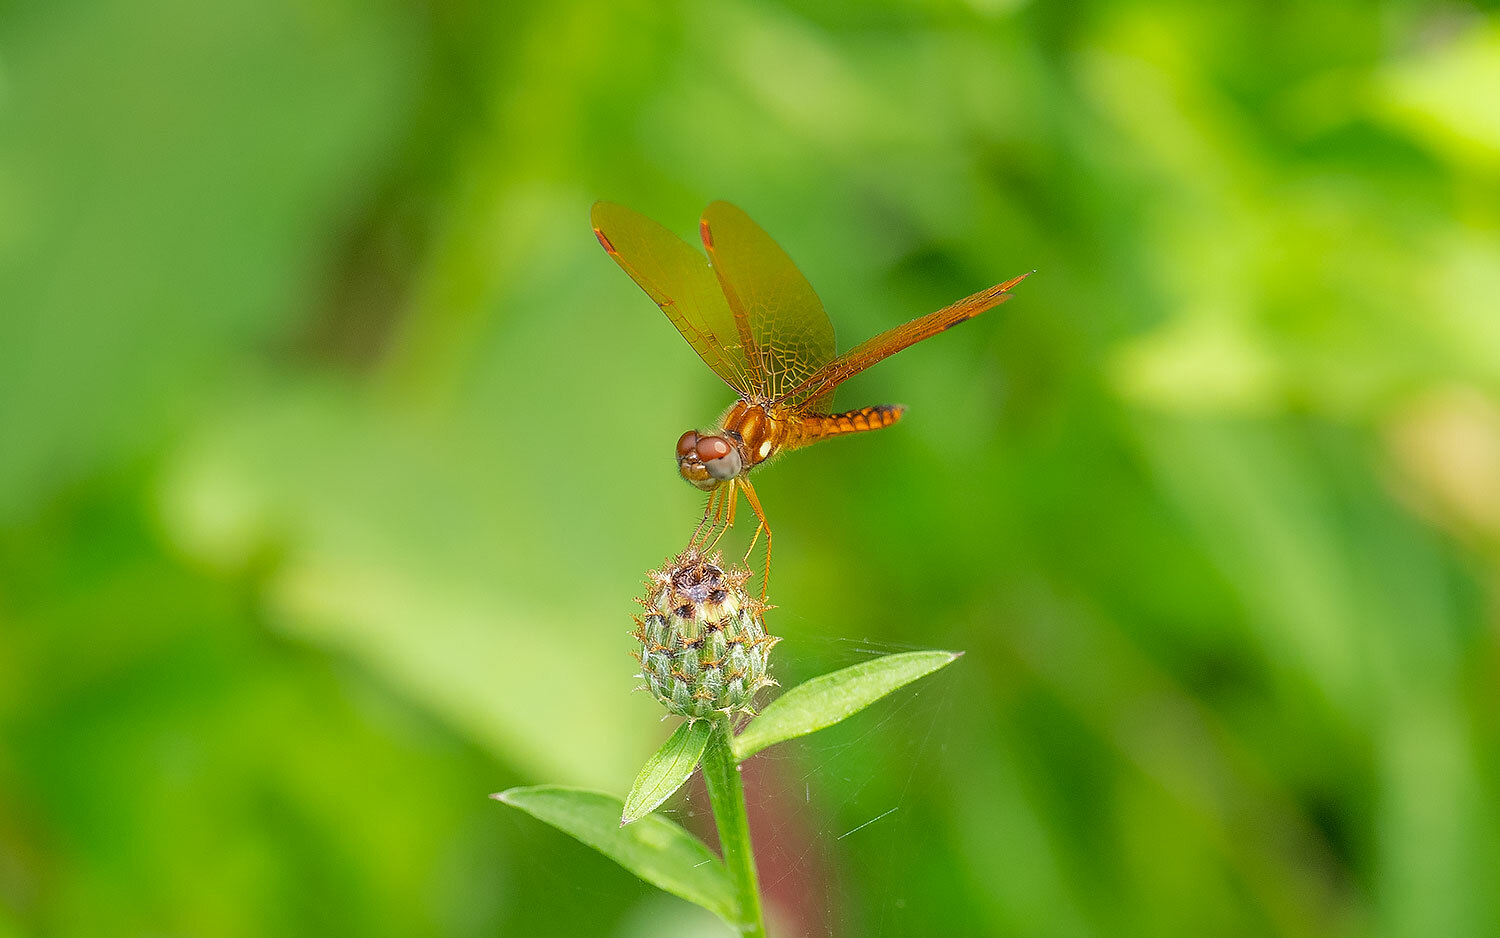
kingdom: Animalia
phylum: Arthropoda
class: Insecta
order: Odonata
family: Libellulidae
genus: Perithemis
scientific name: Perithemis tenera
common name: Eastern amberwing
